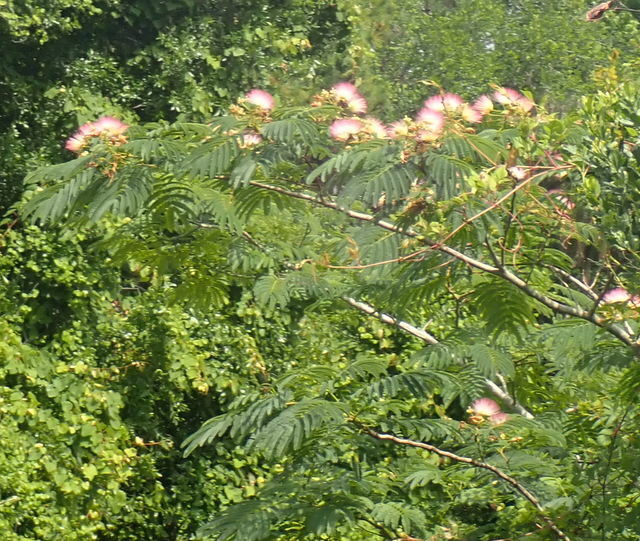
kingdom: Plantae
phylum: Tracheophyta
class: Magnoliopsida
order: Fabales
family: Fabaceae
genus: Albizia
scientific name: Albizia julibrissin
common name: Silktree
